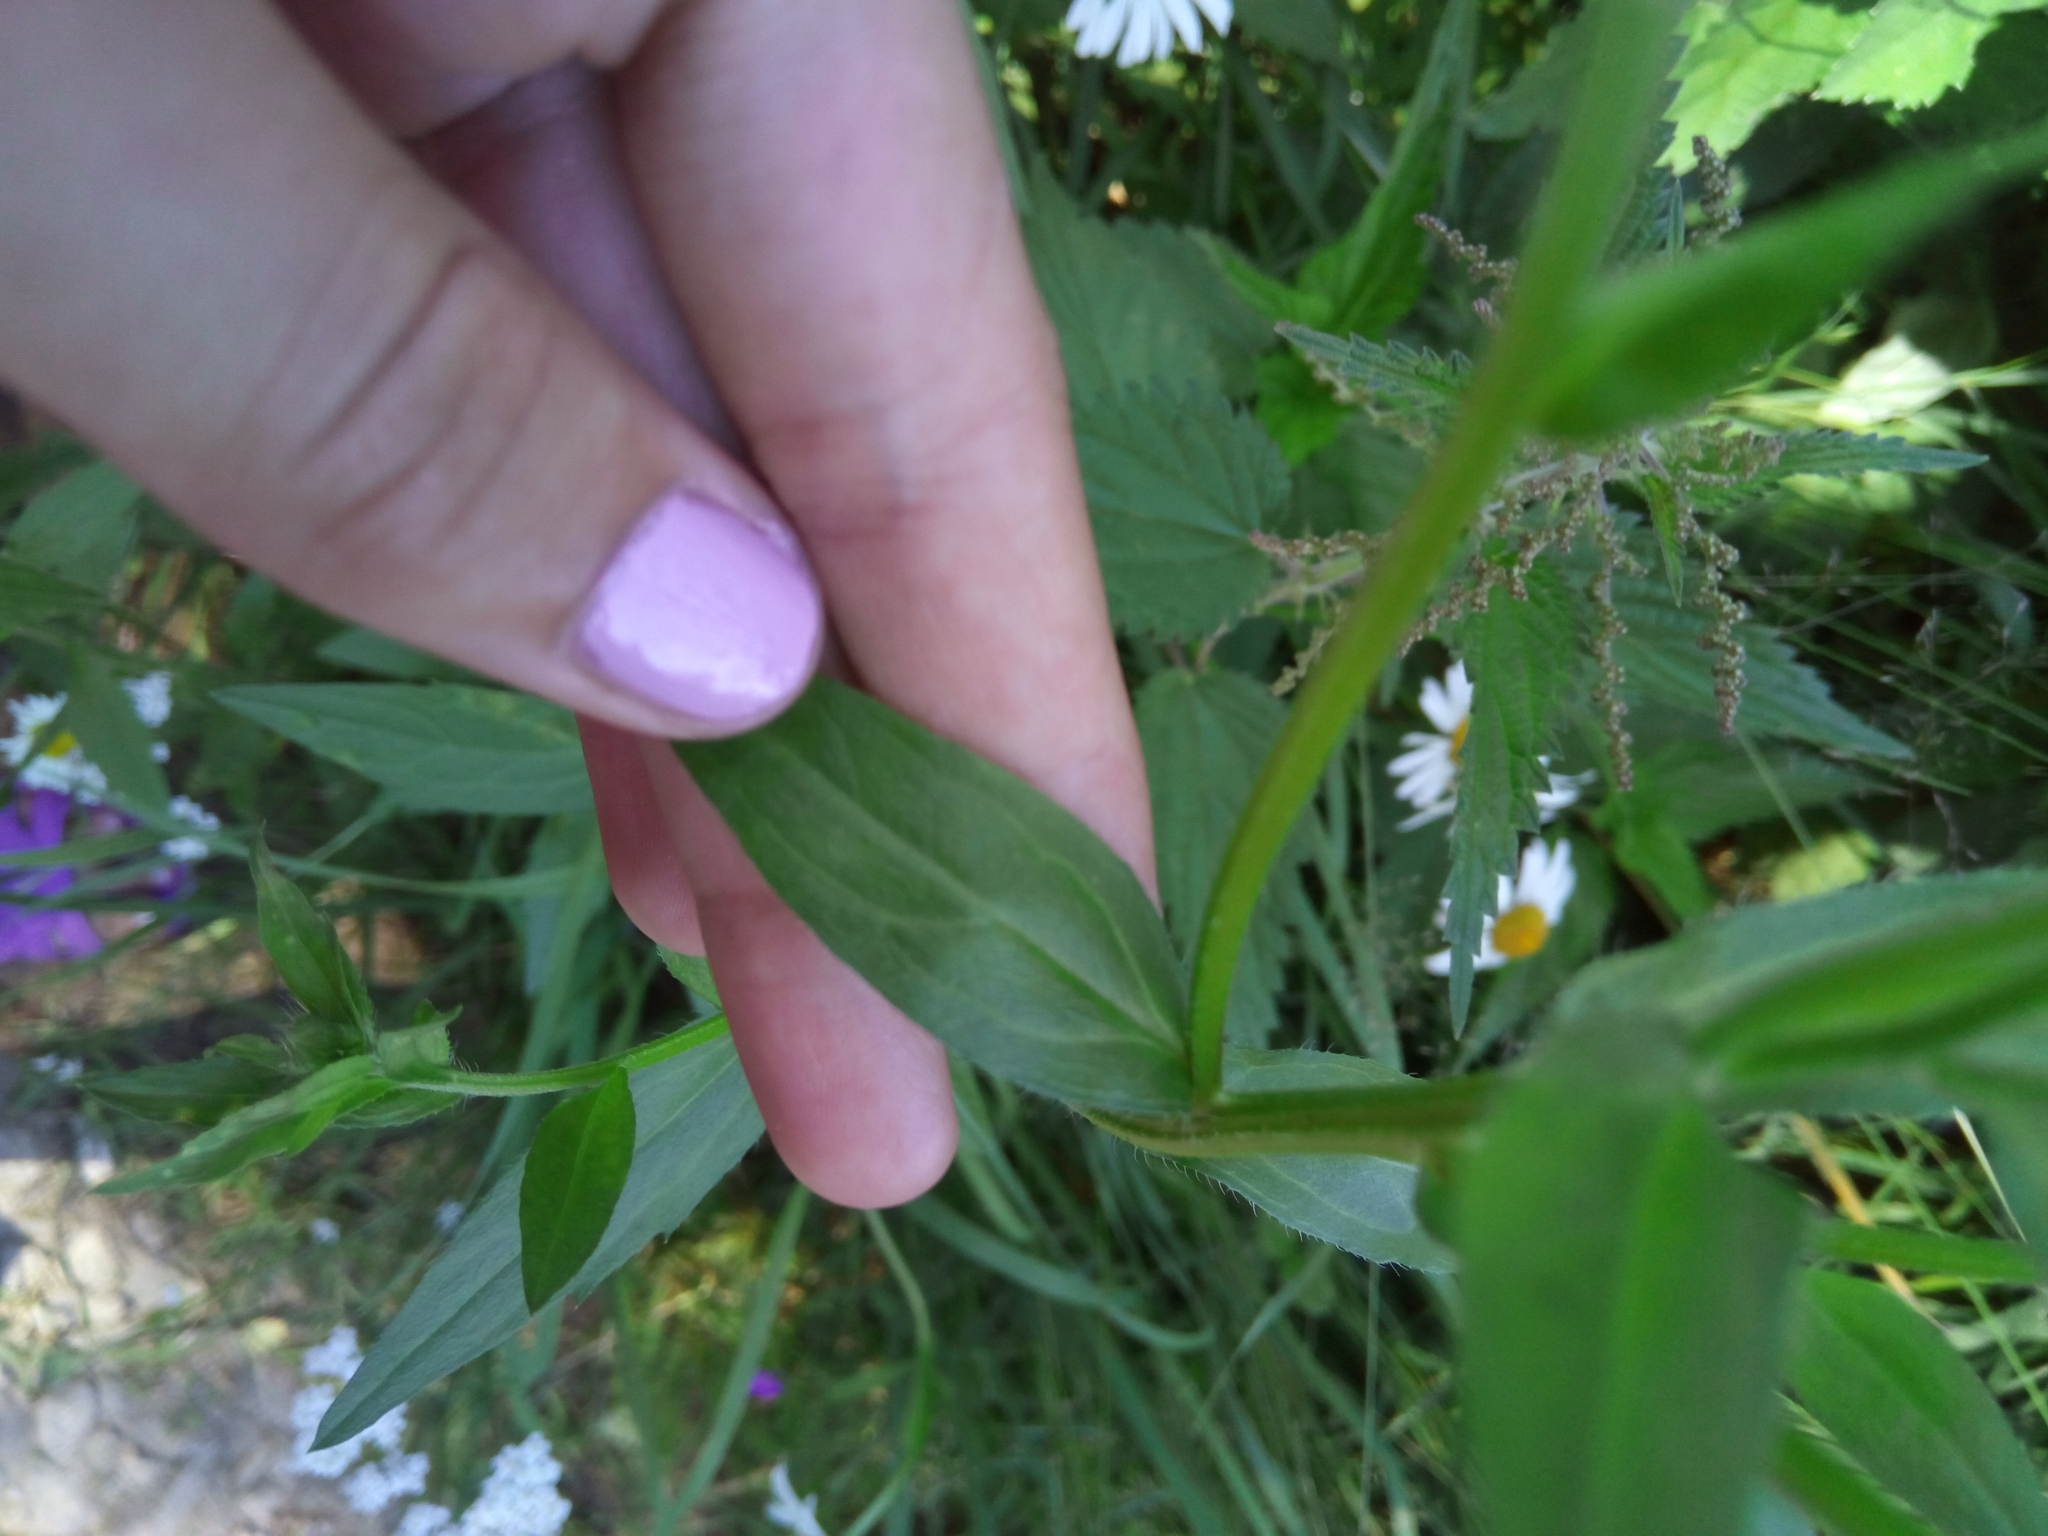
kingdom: Plantae
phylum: Tracheophyta
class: Magnoliopsida
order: Asterales
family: Asteraceae
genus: Erigeron
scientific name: Erigeron annuus
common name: Tall fleabane
